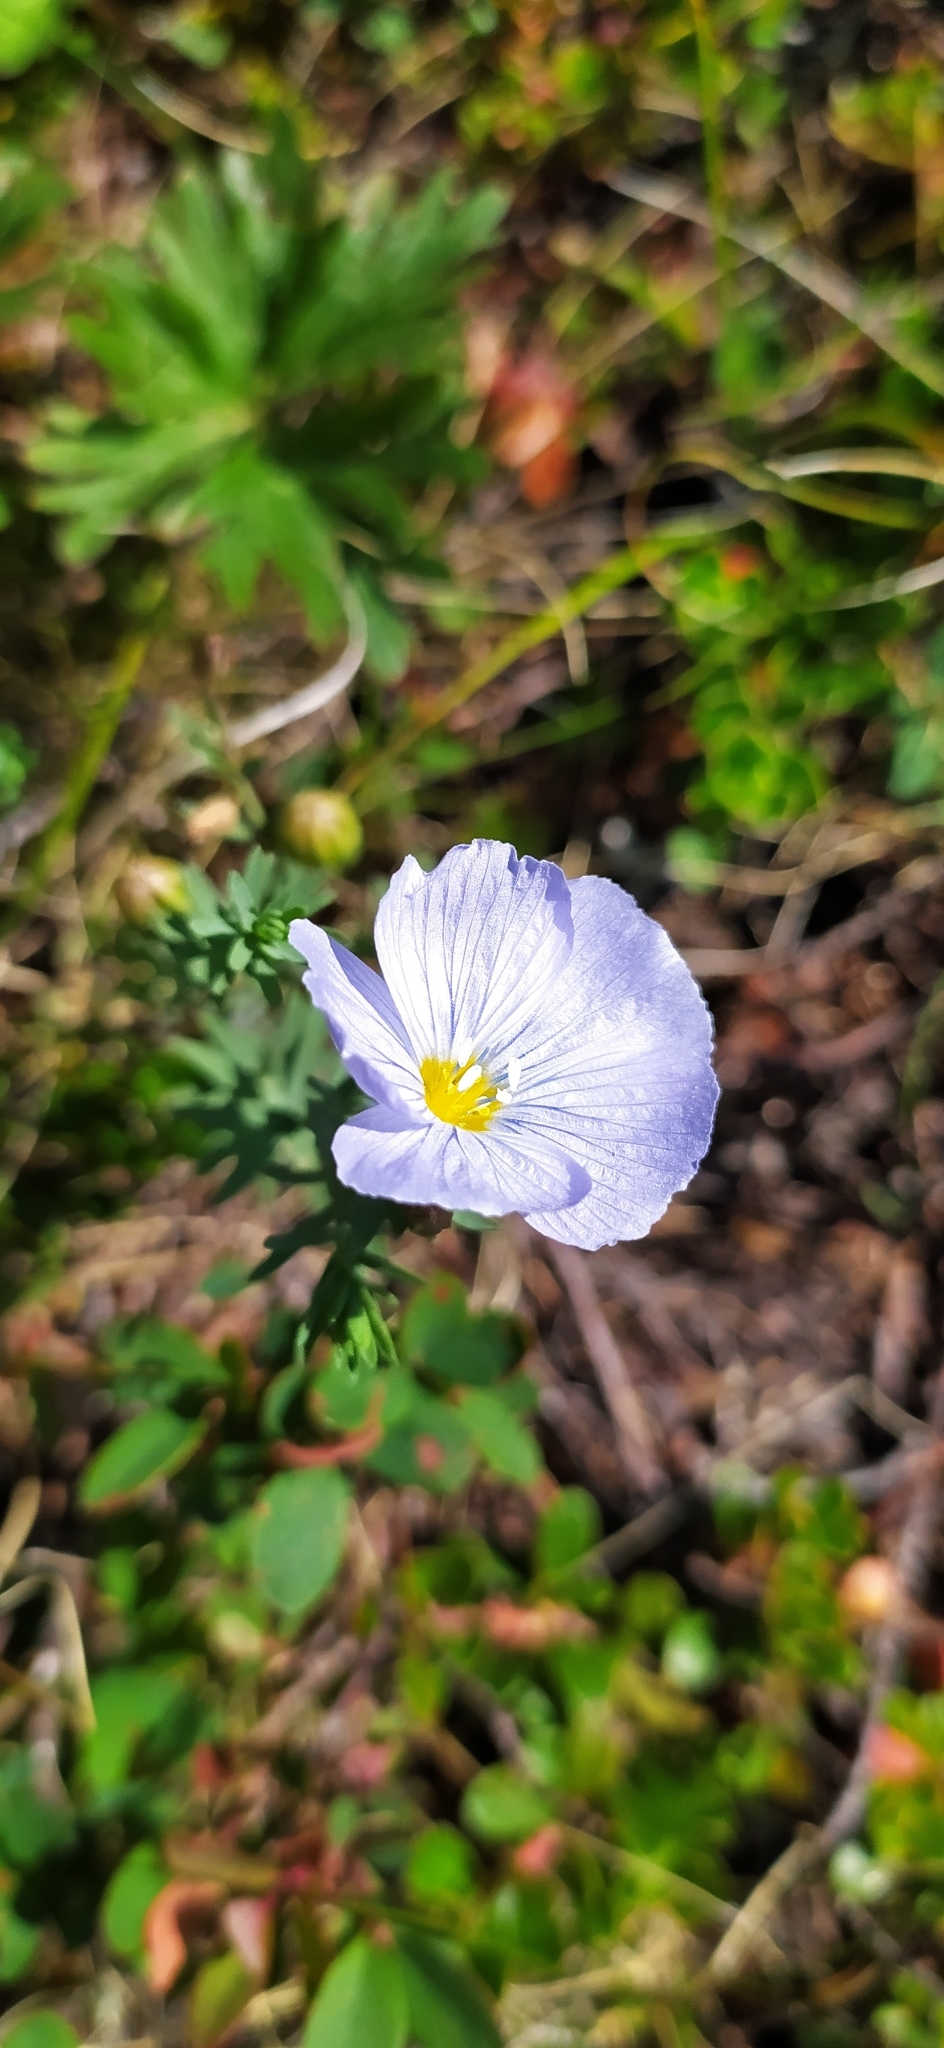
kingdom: Plantae
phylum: Tracheophyta
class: Magnoliopsida
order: Malpighiales
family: Linaceae
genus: Linum
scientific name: Linum komarovii
